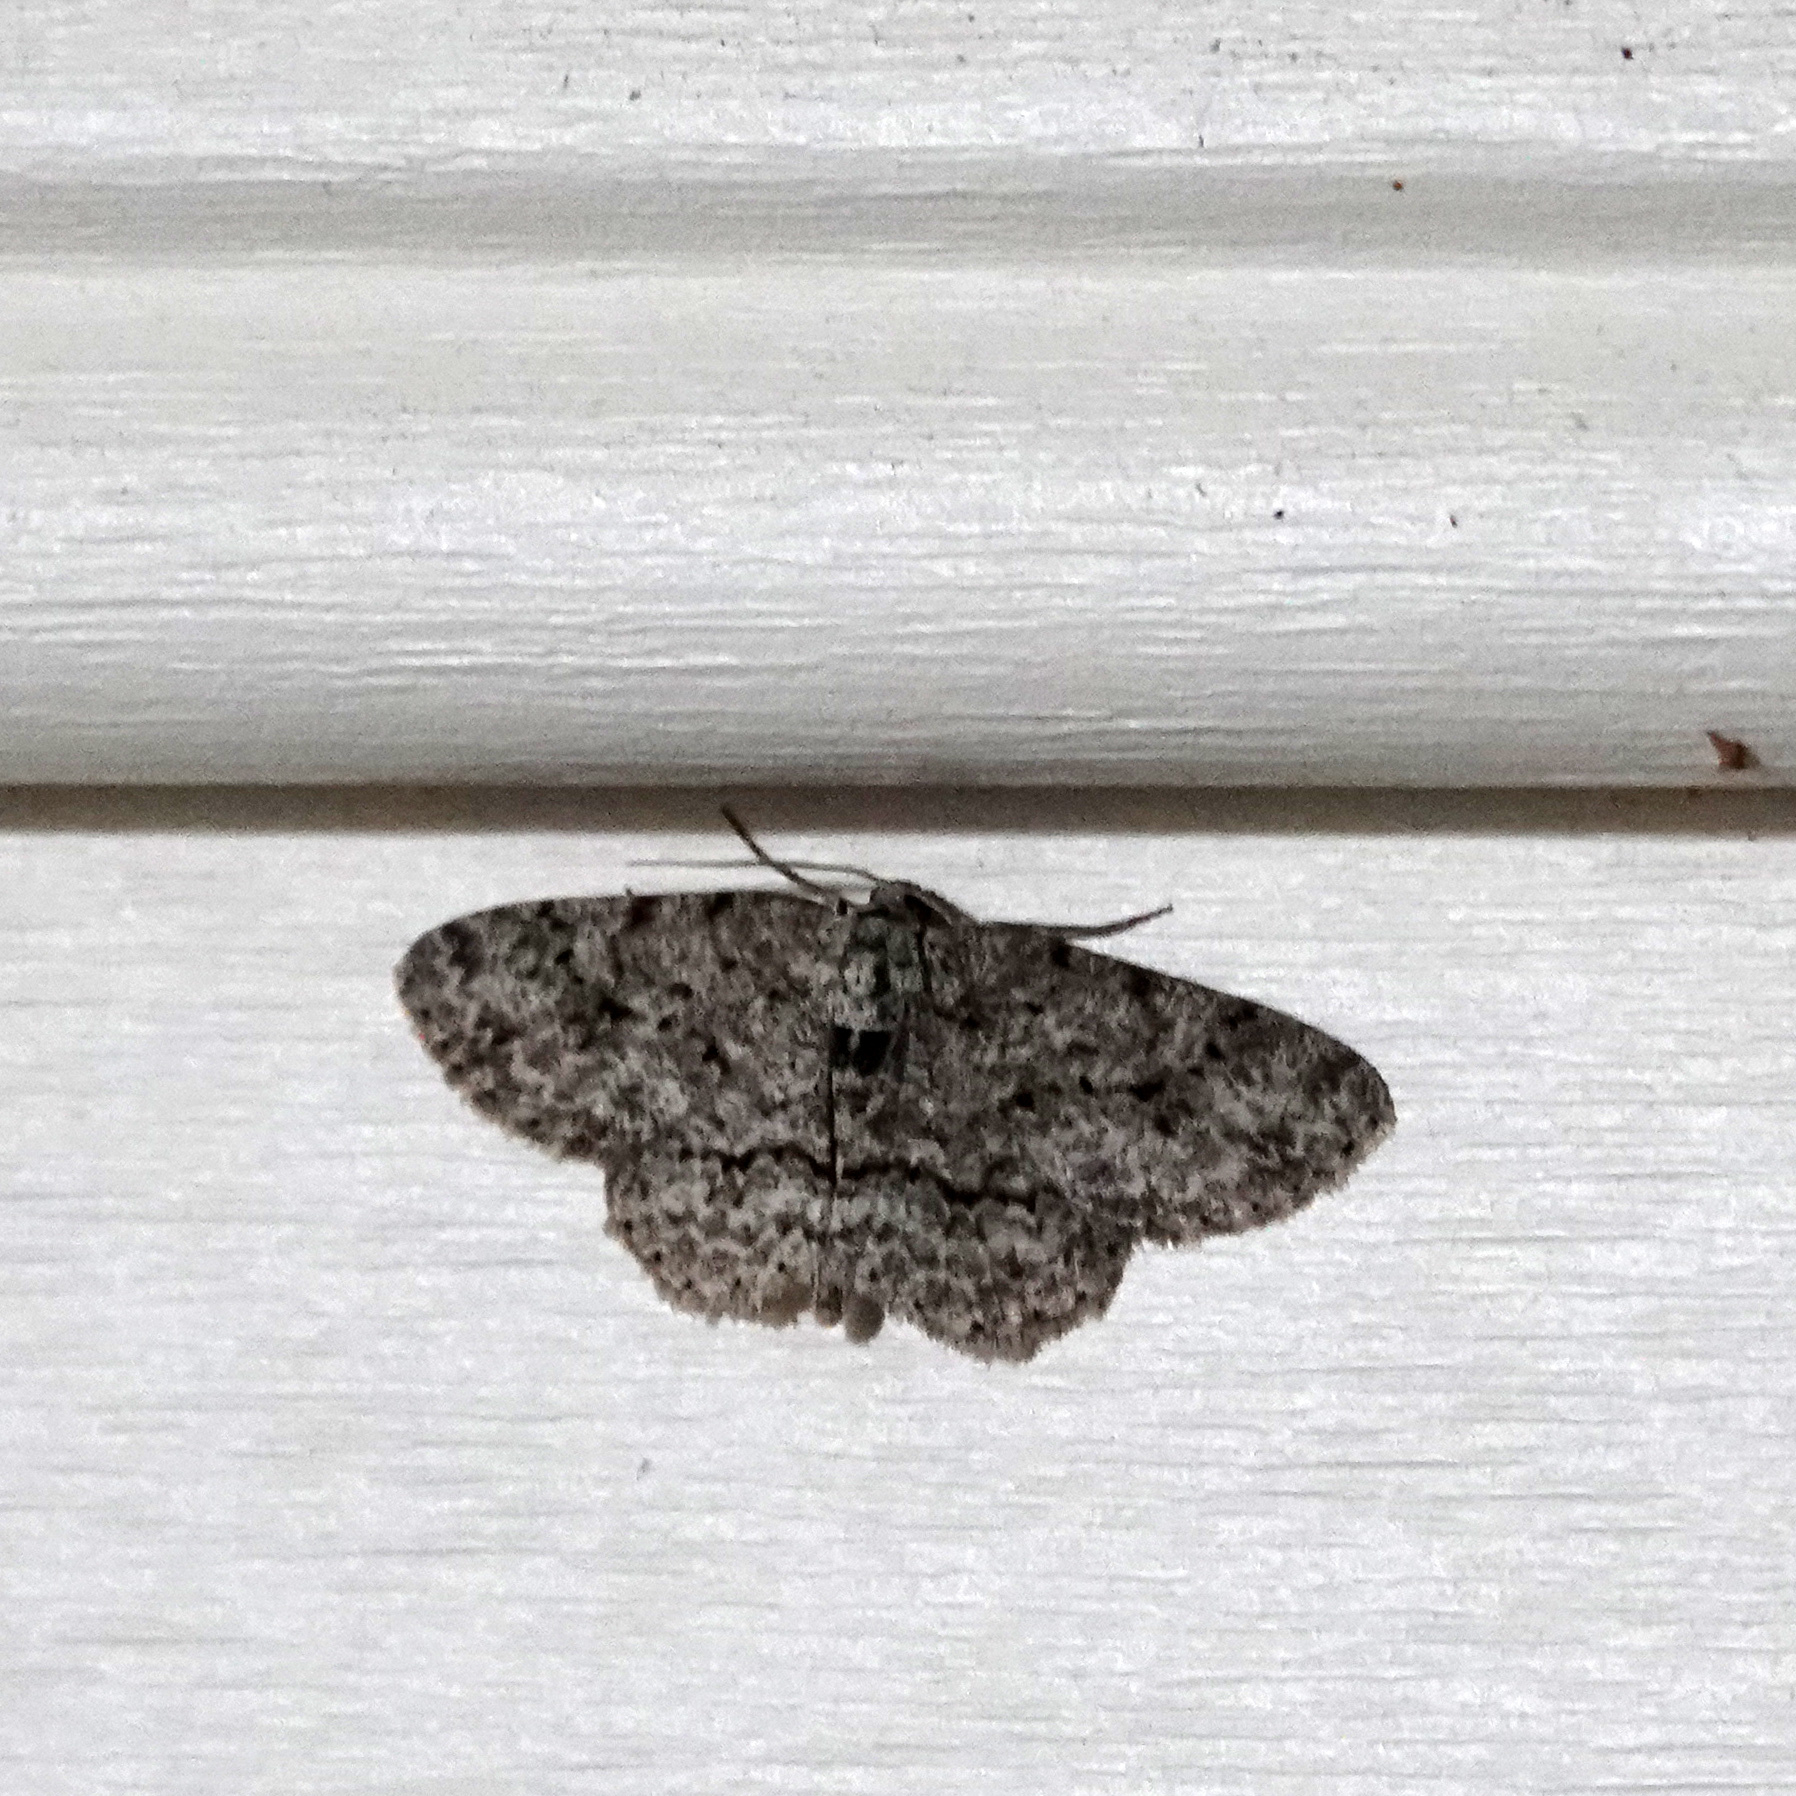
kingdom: Animalia
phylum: Arthropoda
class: Insecta
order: Lepidoptera
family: Geometridae
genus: Ectropis
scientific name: Ectropis crepuscularia
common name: Engrailed
